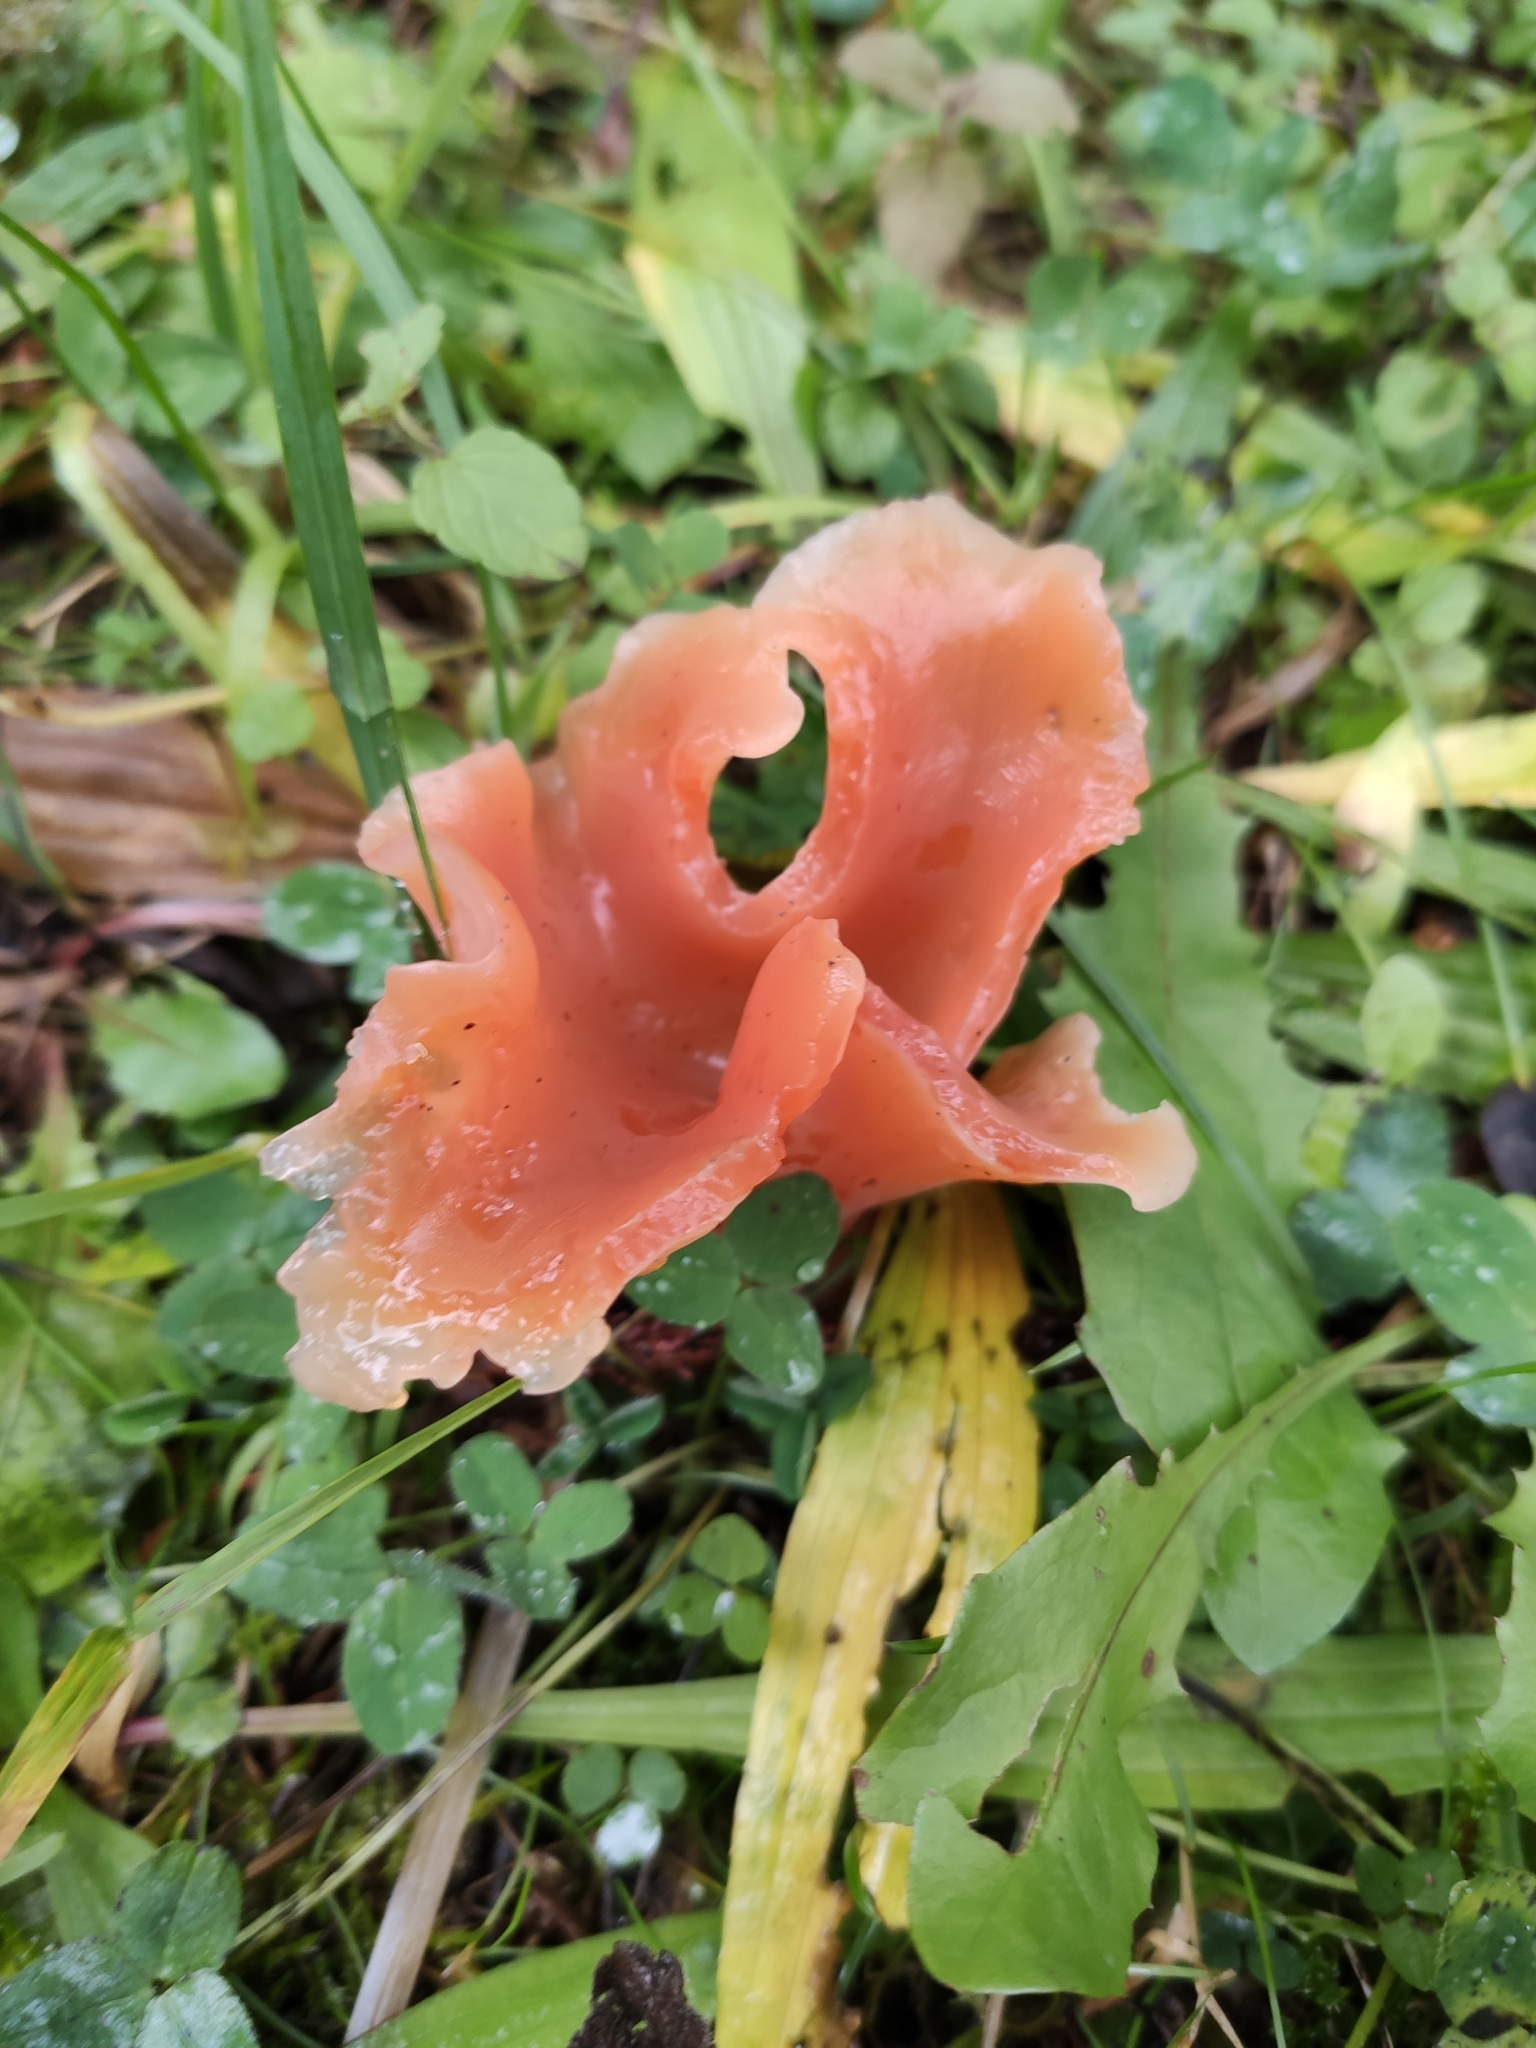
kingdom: Fungi
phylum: Basidiomycota
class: Agaricomycetes
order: Auriculariales
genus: Guepinia
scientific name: Guepinia helvelloides
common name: Salmon salad
